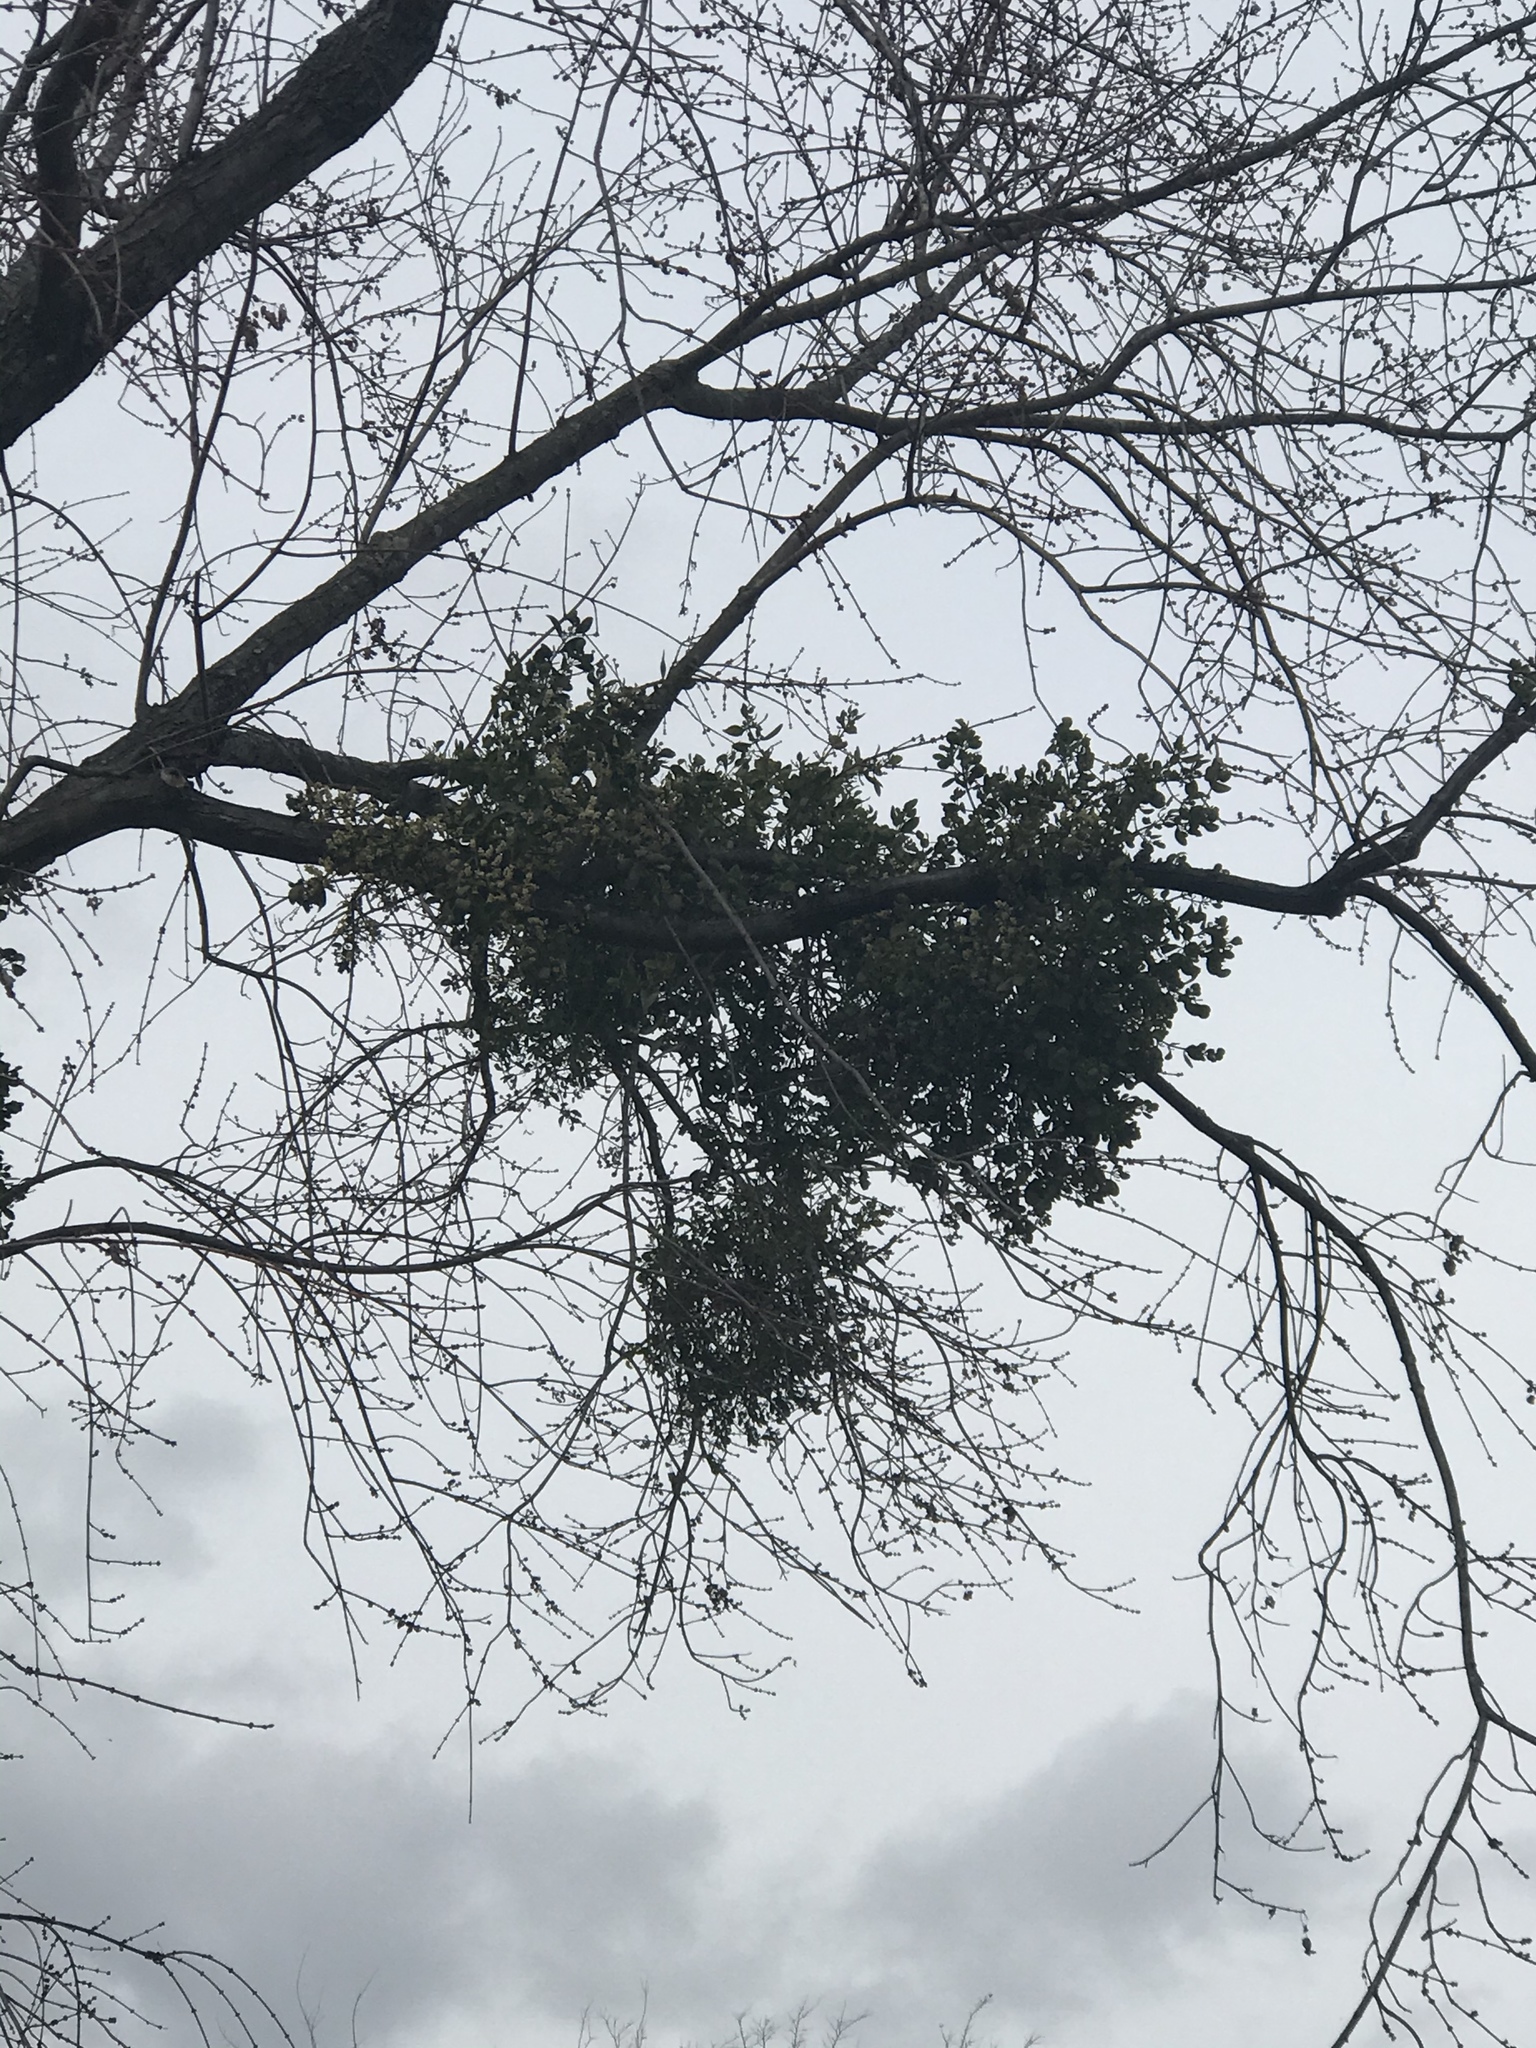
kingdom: Plantae
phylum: Tracheophyta
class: Magnoliopsida
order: Santalales
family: Viscaceae
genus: Phoradendron
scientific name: Phoradendron leucarpum
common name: Pacific mistletoe
